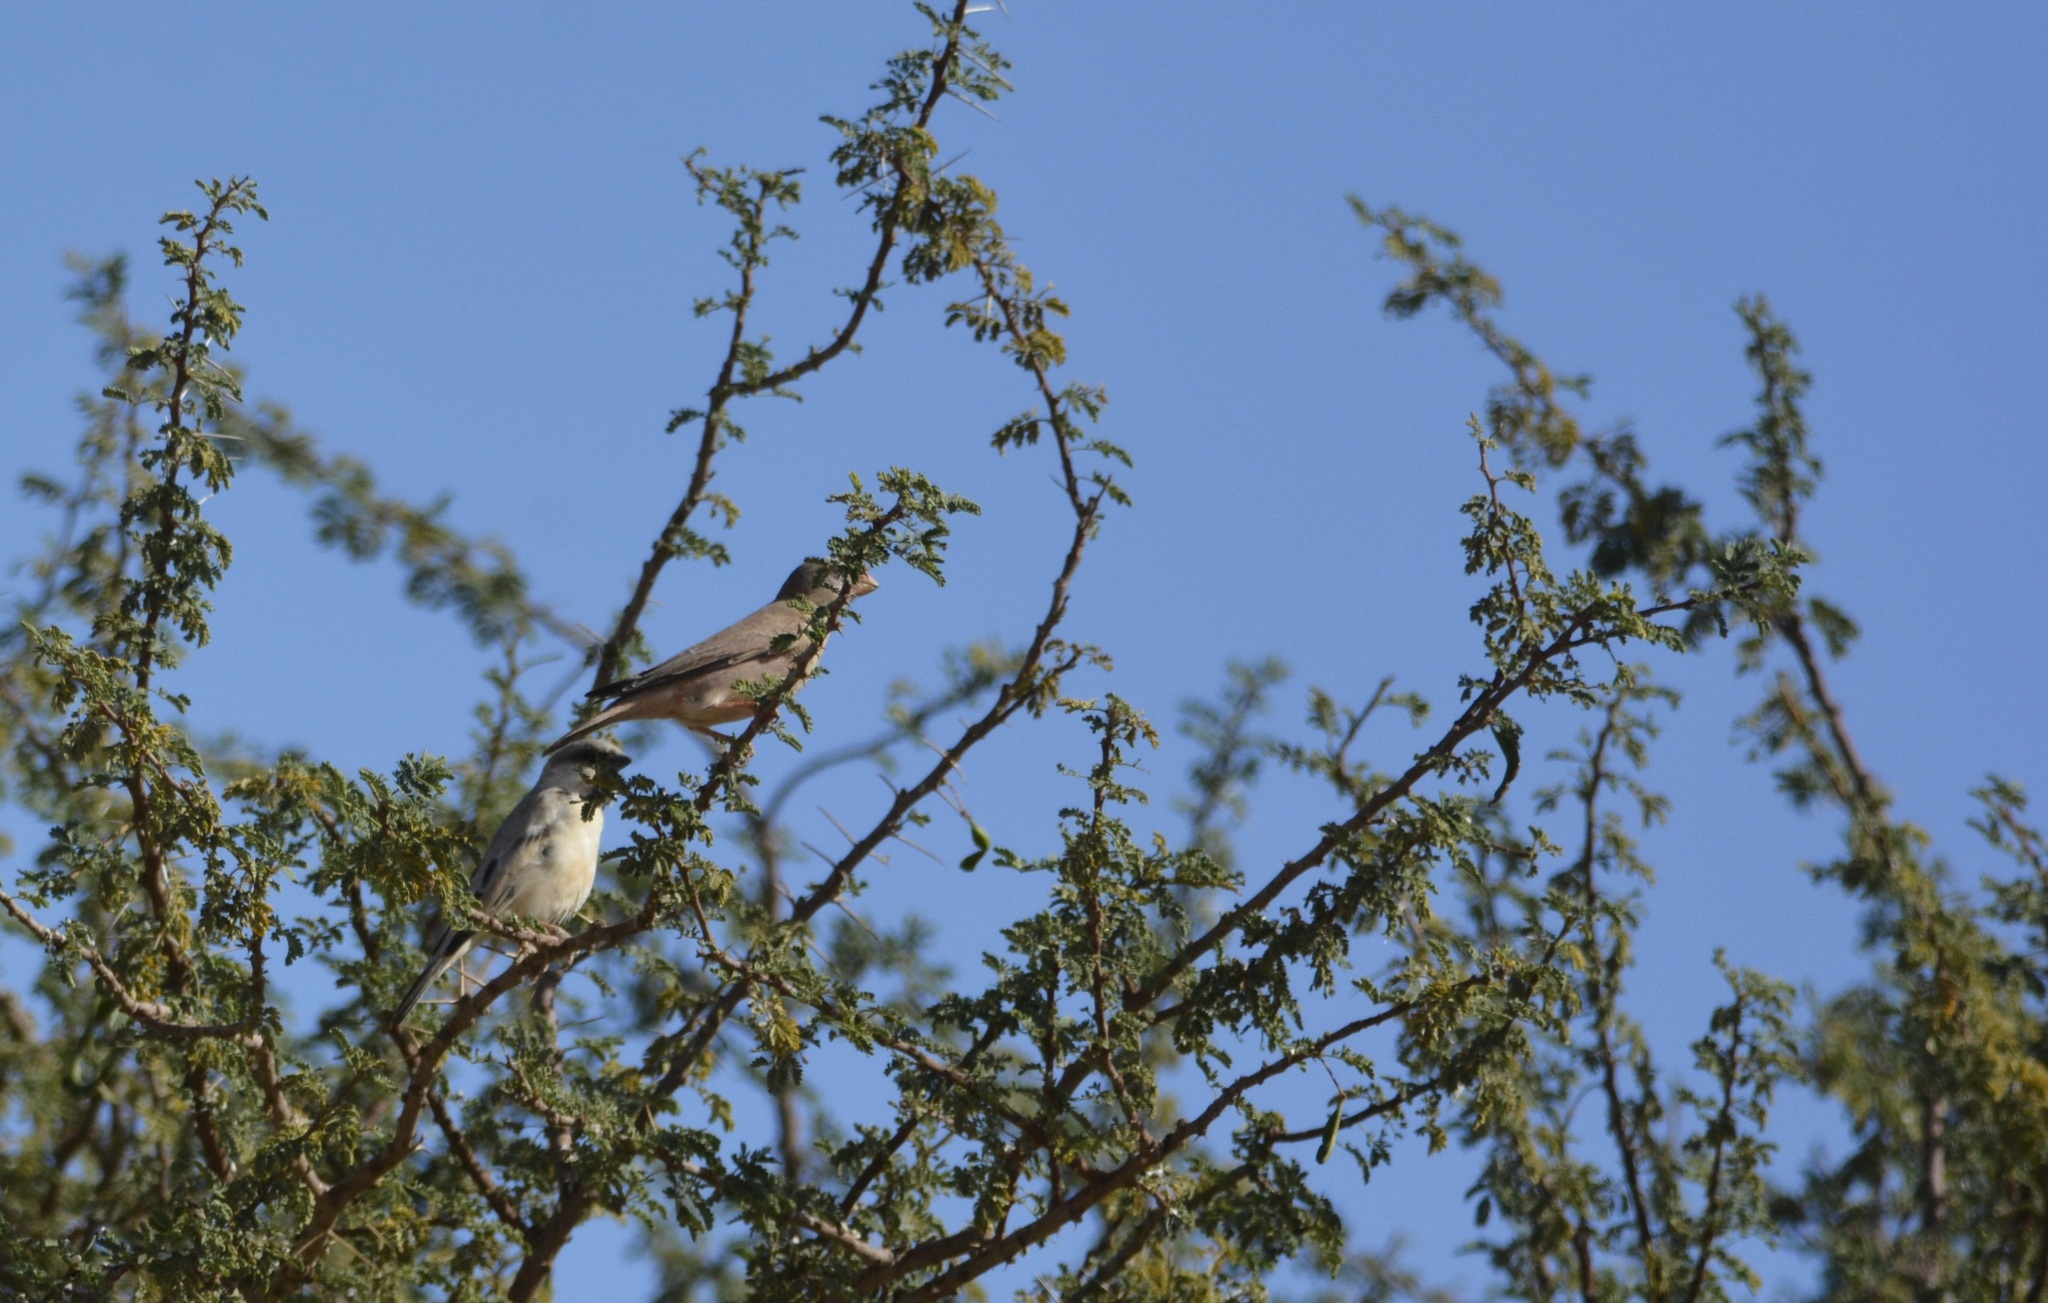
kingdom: Animalia
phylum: Chordata
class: Aves
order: Passeriformes
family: Passeridae
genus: Passer
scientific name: Passer simplex
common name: Desert sparrow
